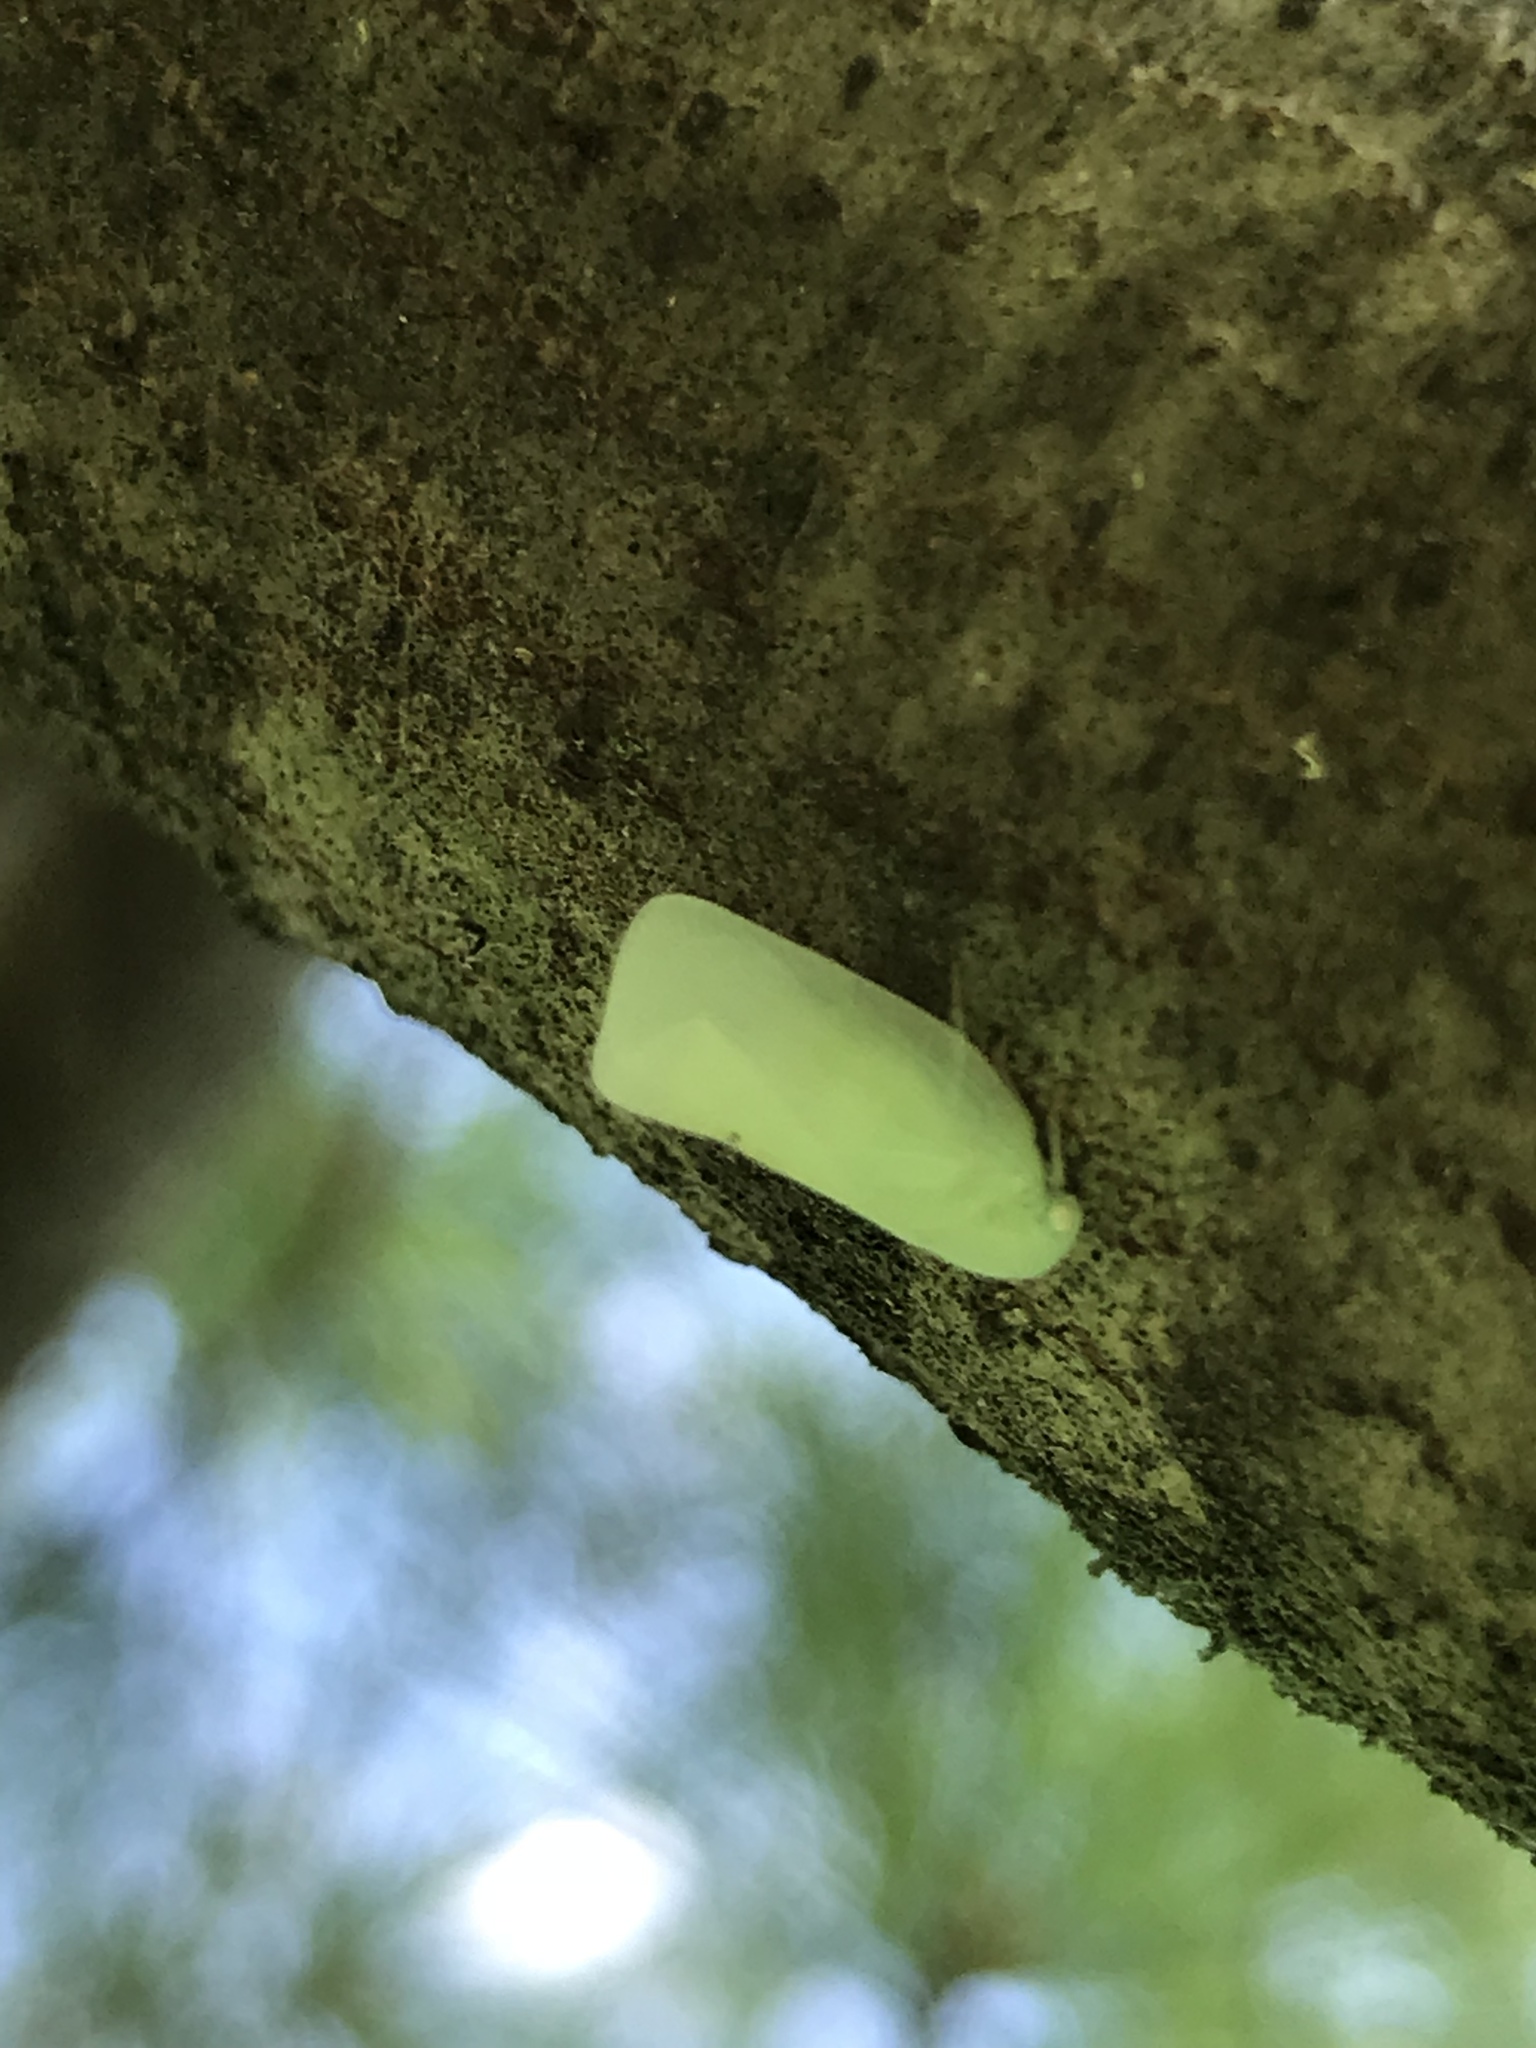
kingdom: Animalia
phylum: Arthropoda
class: Insecta
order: Hemiptera
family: Flatidae
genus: Flatormenis
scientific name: Flatormenis proxima
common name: Northern flatid planthopper
